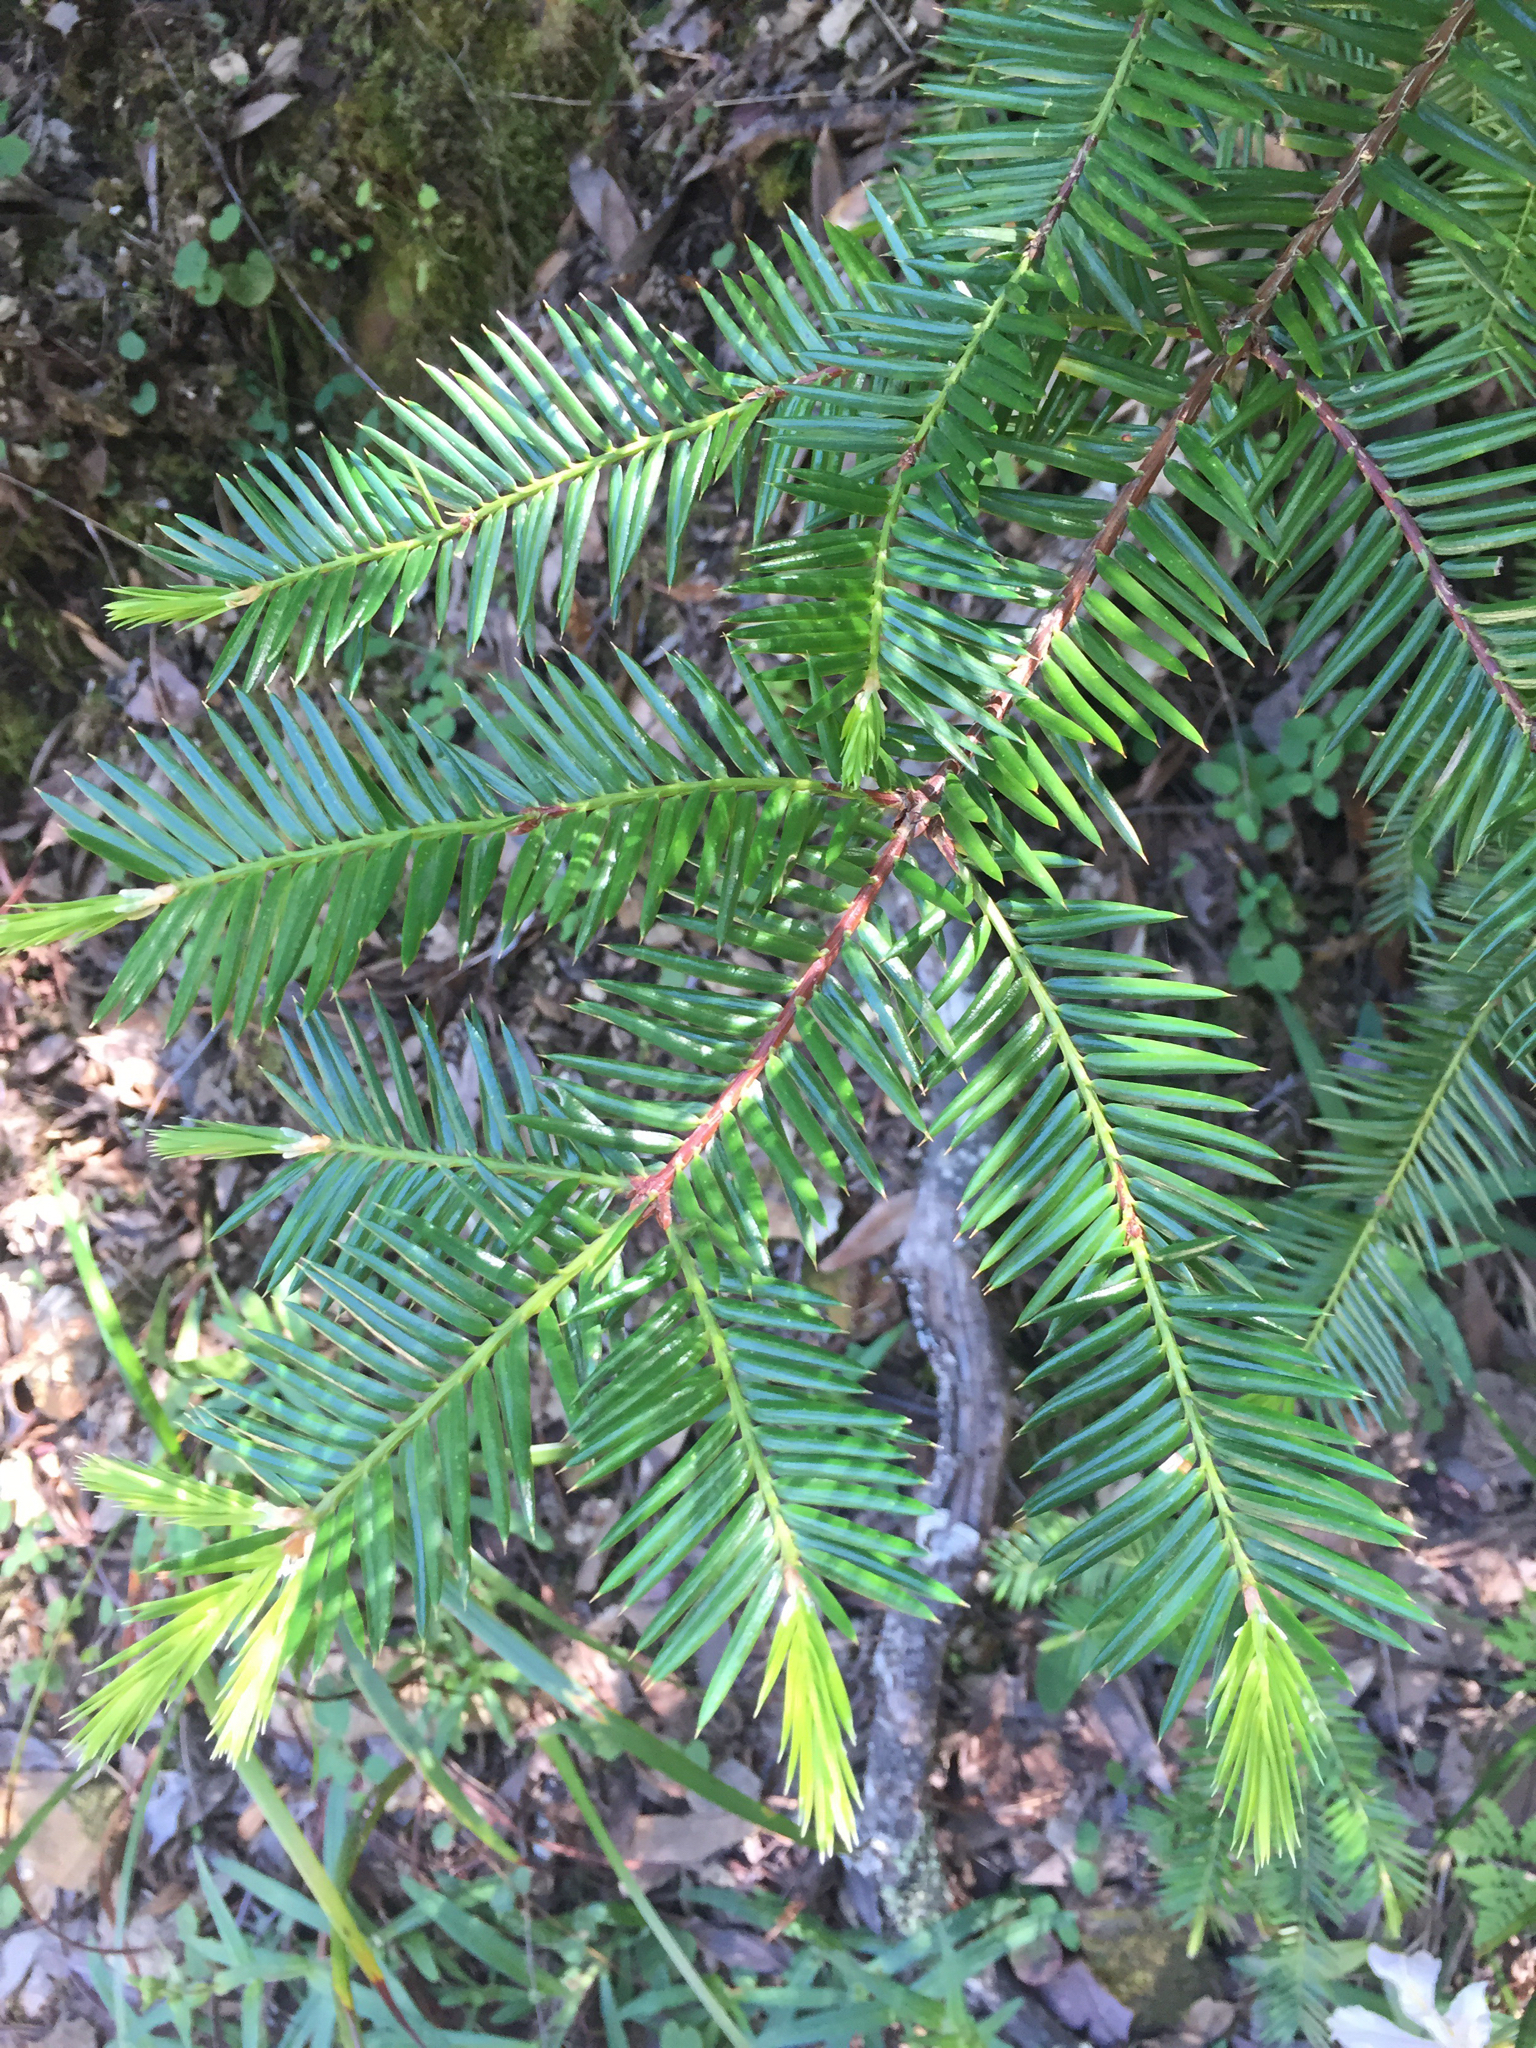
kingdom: Plantae
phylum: Tracheophyta
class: Pinopsida
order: Pinales
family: Taxaceae
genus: Torreya
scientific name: Torreya californica
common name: California torreya
